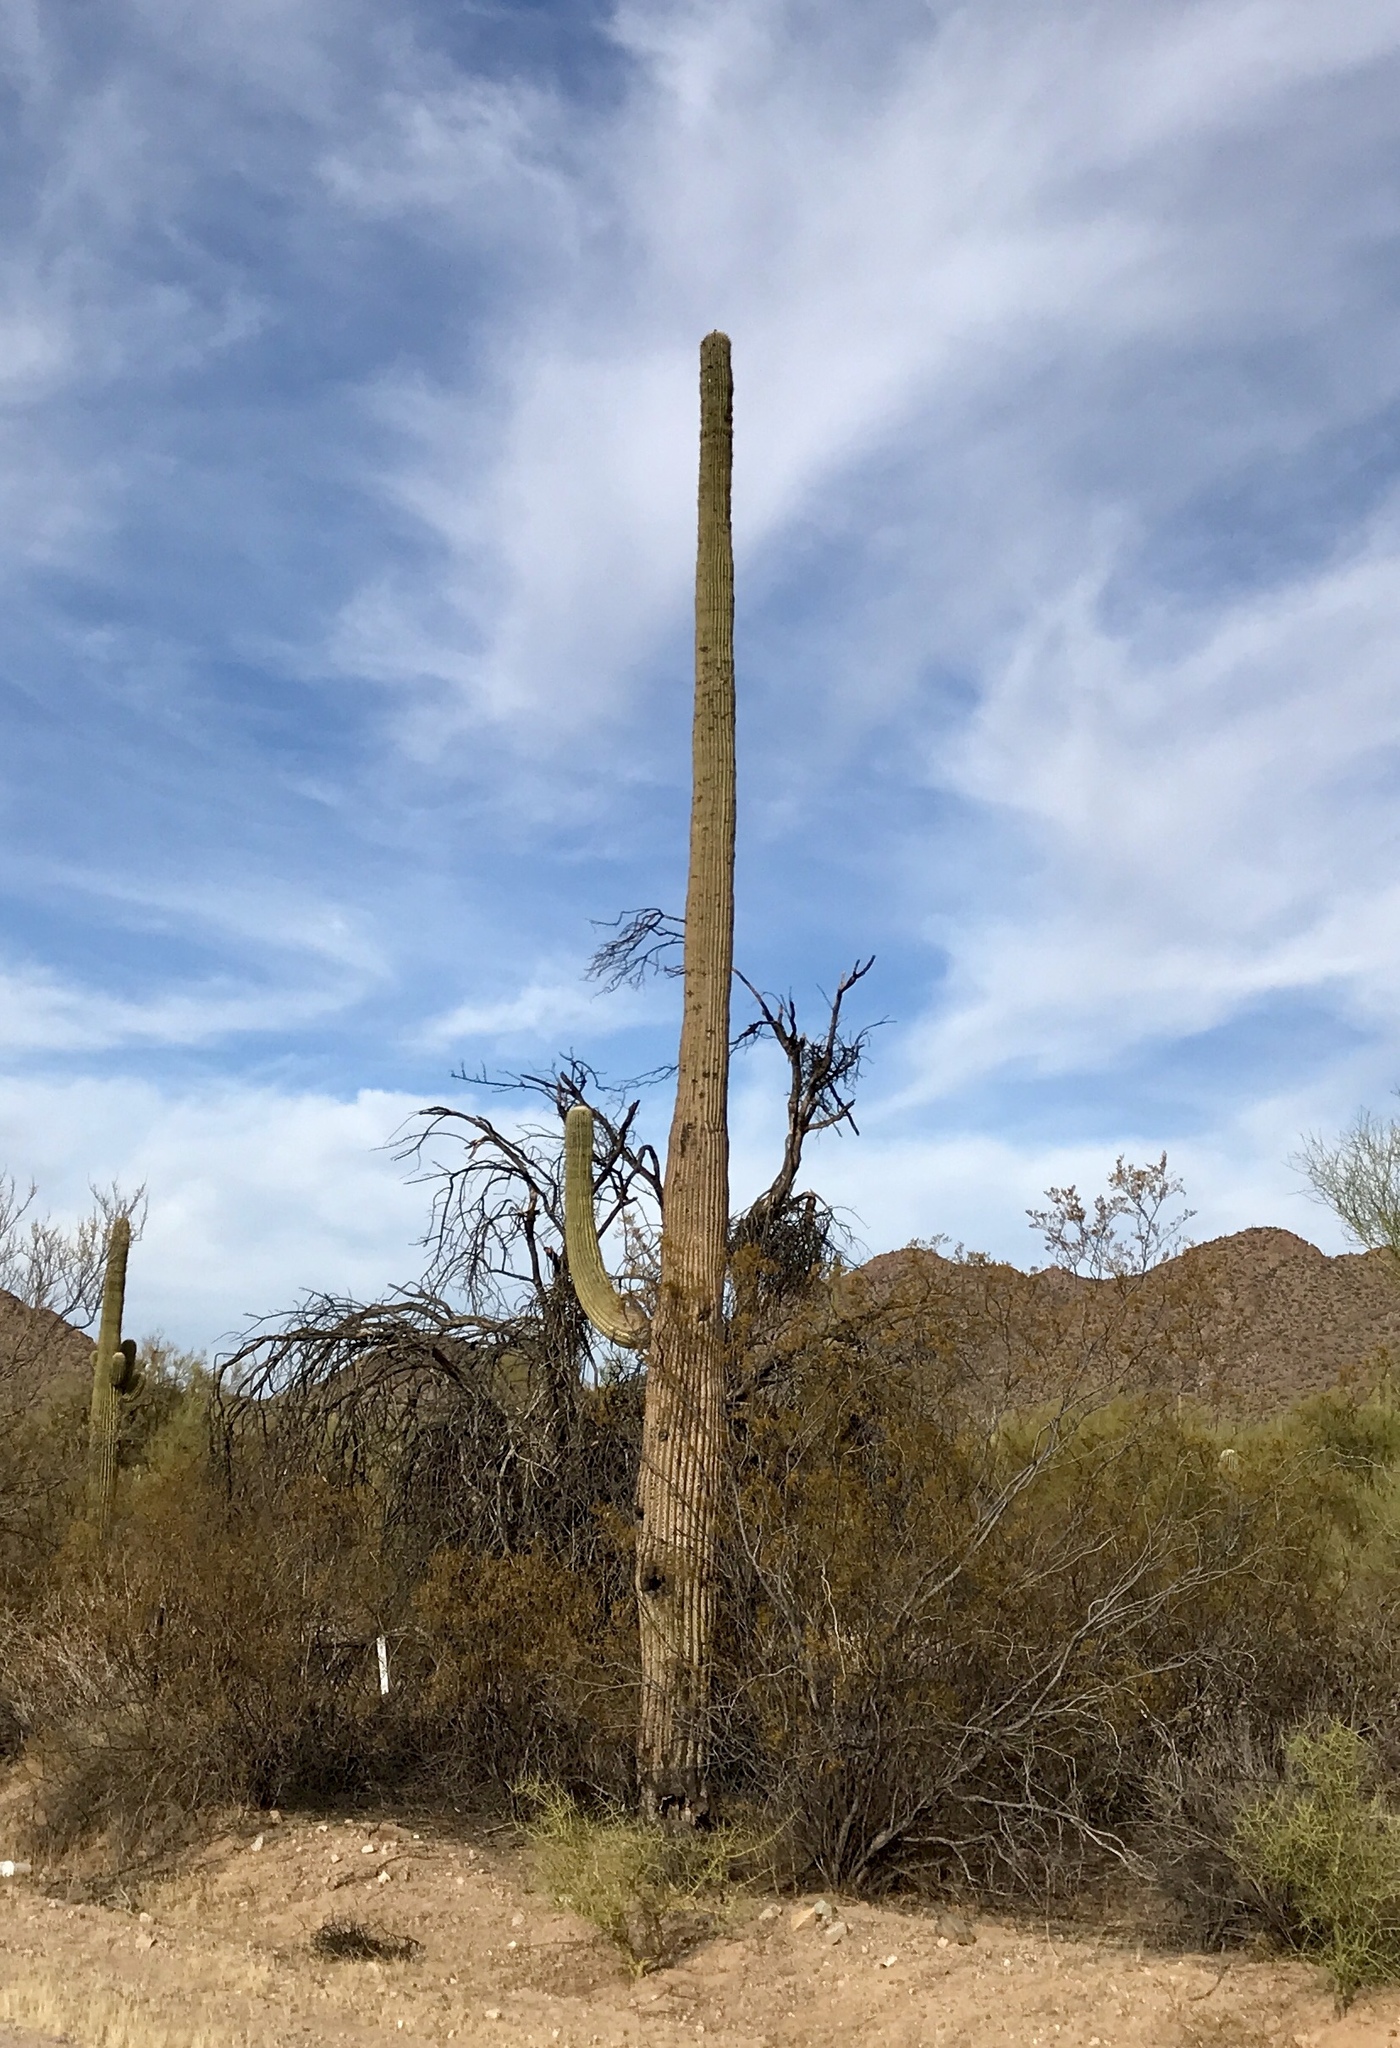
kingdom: Plantae
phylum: Tracheophyta
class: Magnoliopsida
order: Caryophyllales
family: Cactaceae
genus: Carnegiea
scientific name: Carnegiea gigantea
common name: Saguaro
